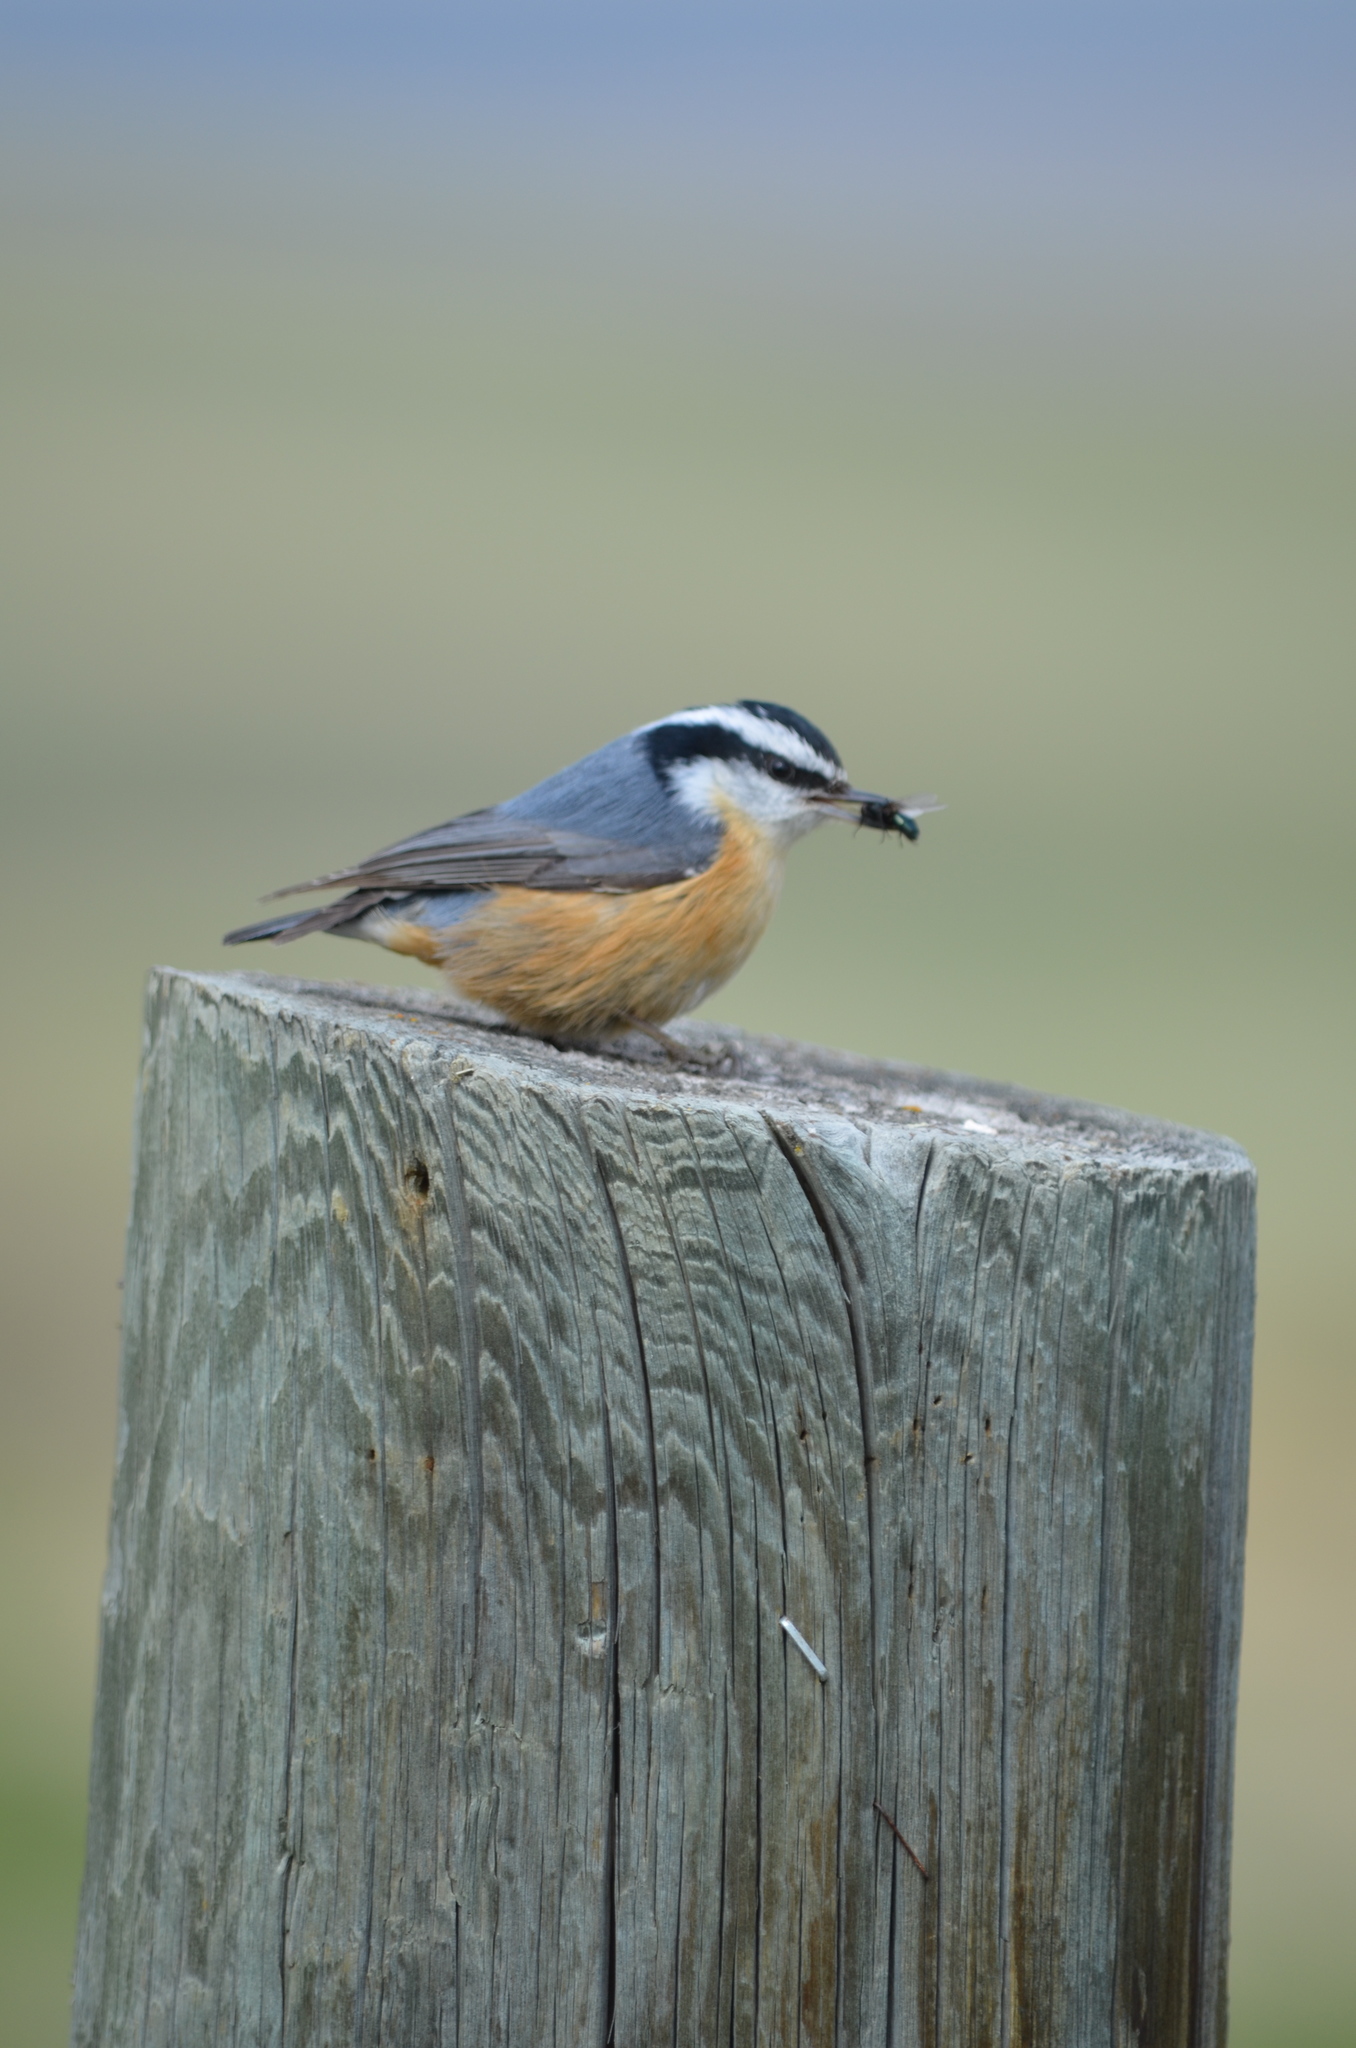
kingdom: Animalia
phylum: Chordata
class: Aves
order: Passeriformes
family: Sittidae
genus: Sitta
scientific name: Sitta canadensis
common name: Red-breasted nuthatch
